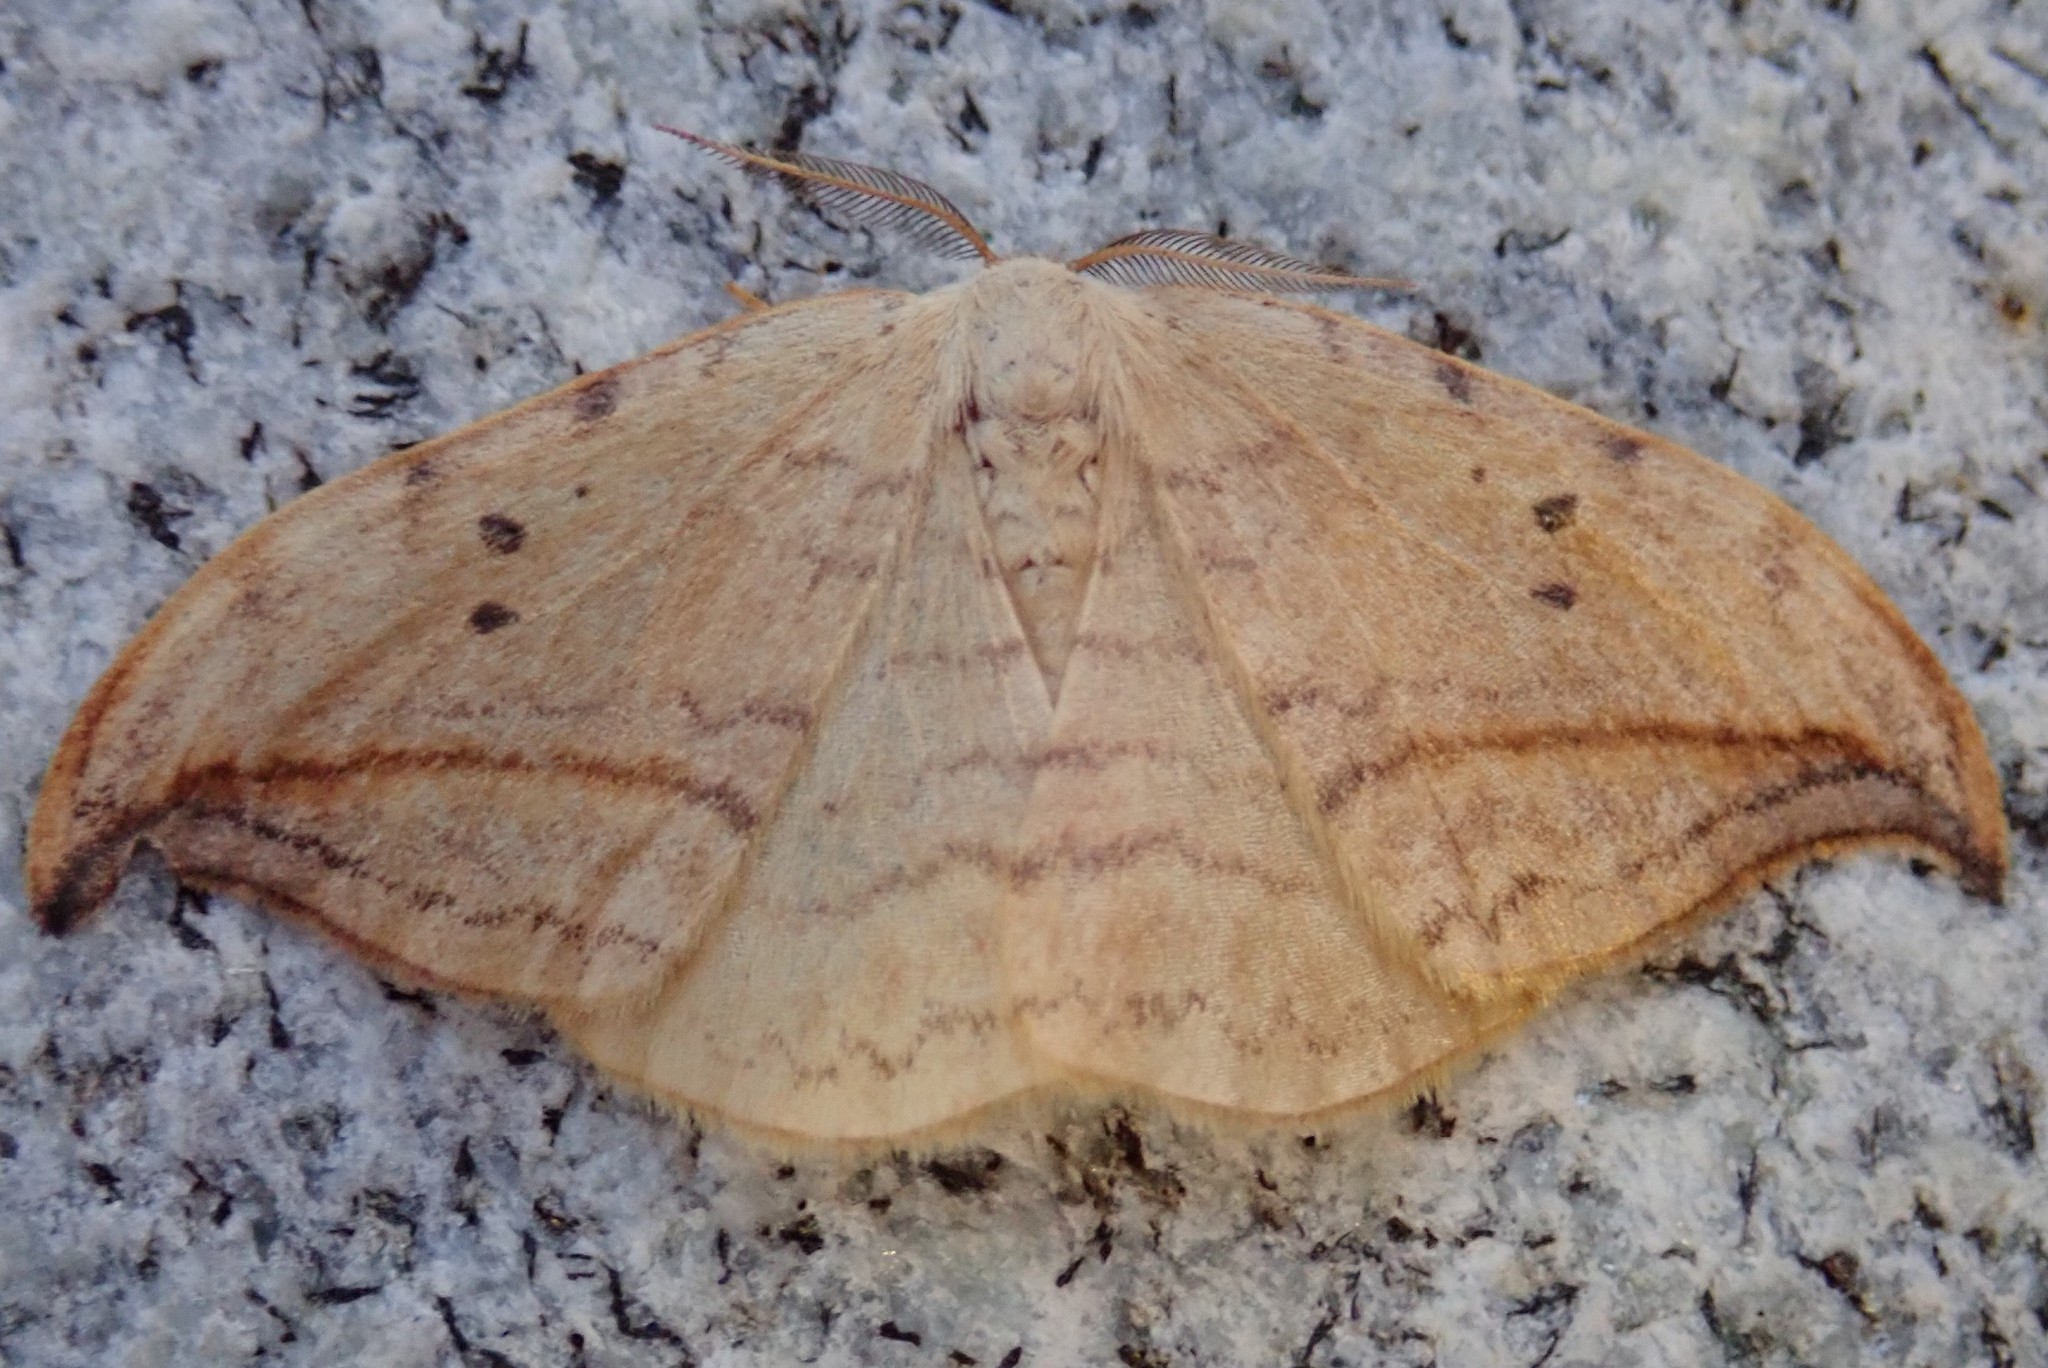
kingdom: Animalia
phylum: Arthropoda
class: Insecta
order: Lepidoptera
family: Drepanidae
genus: Drepana
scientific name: Drepana arcuata
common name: Arched hooktip moth
